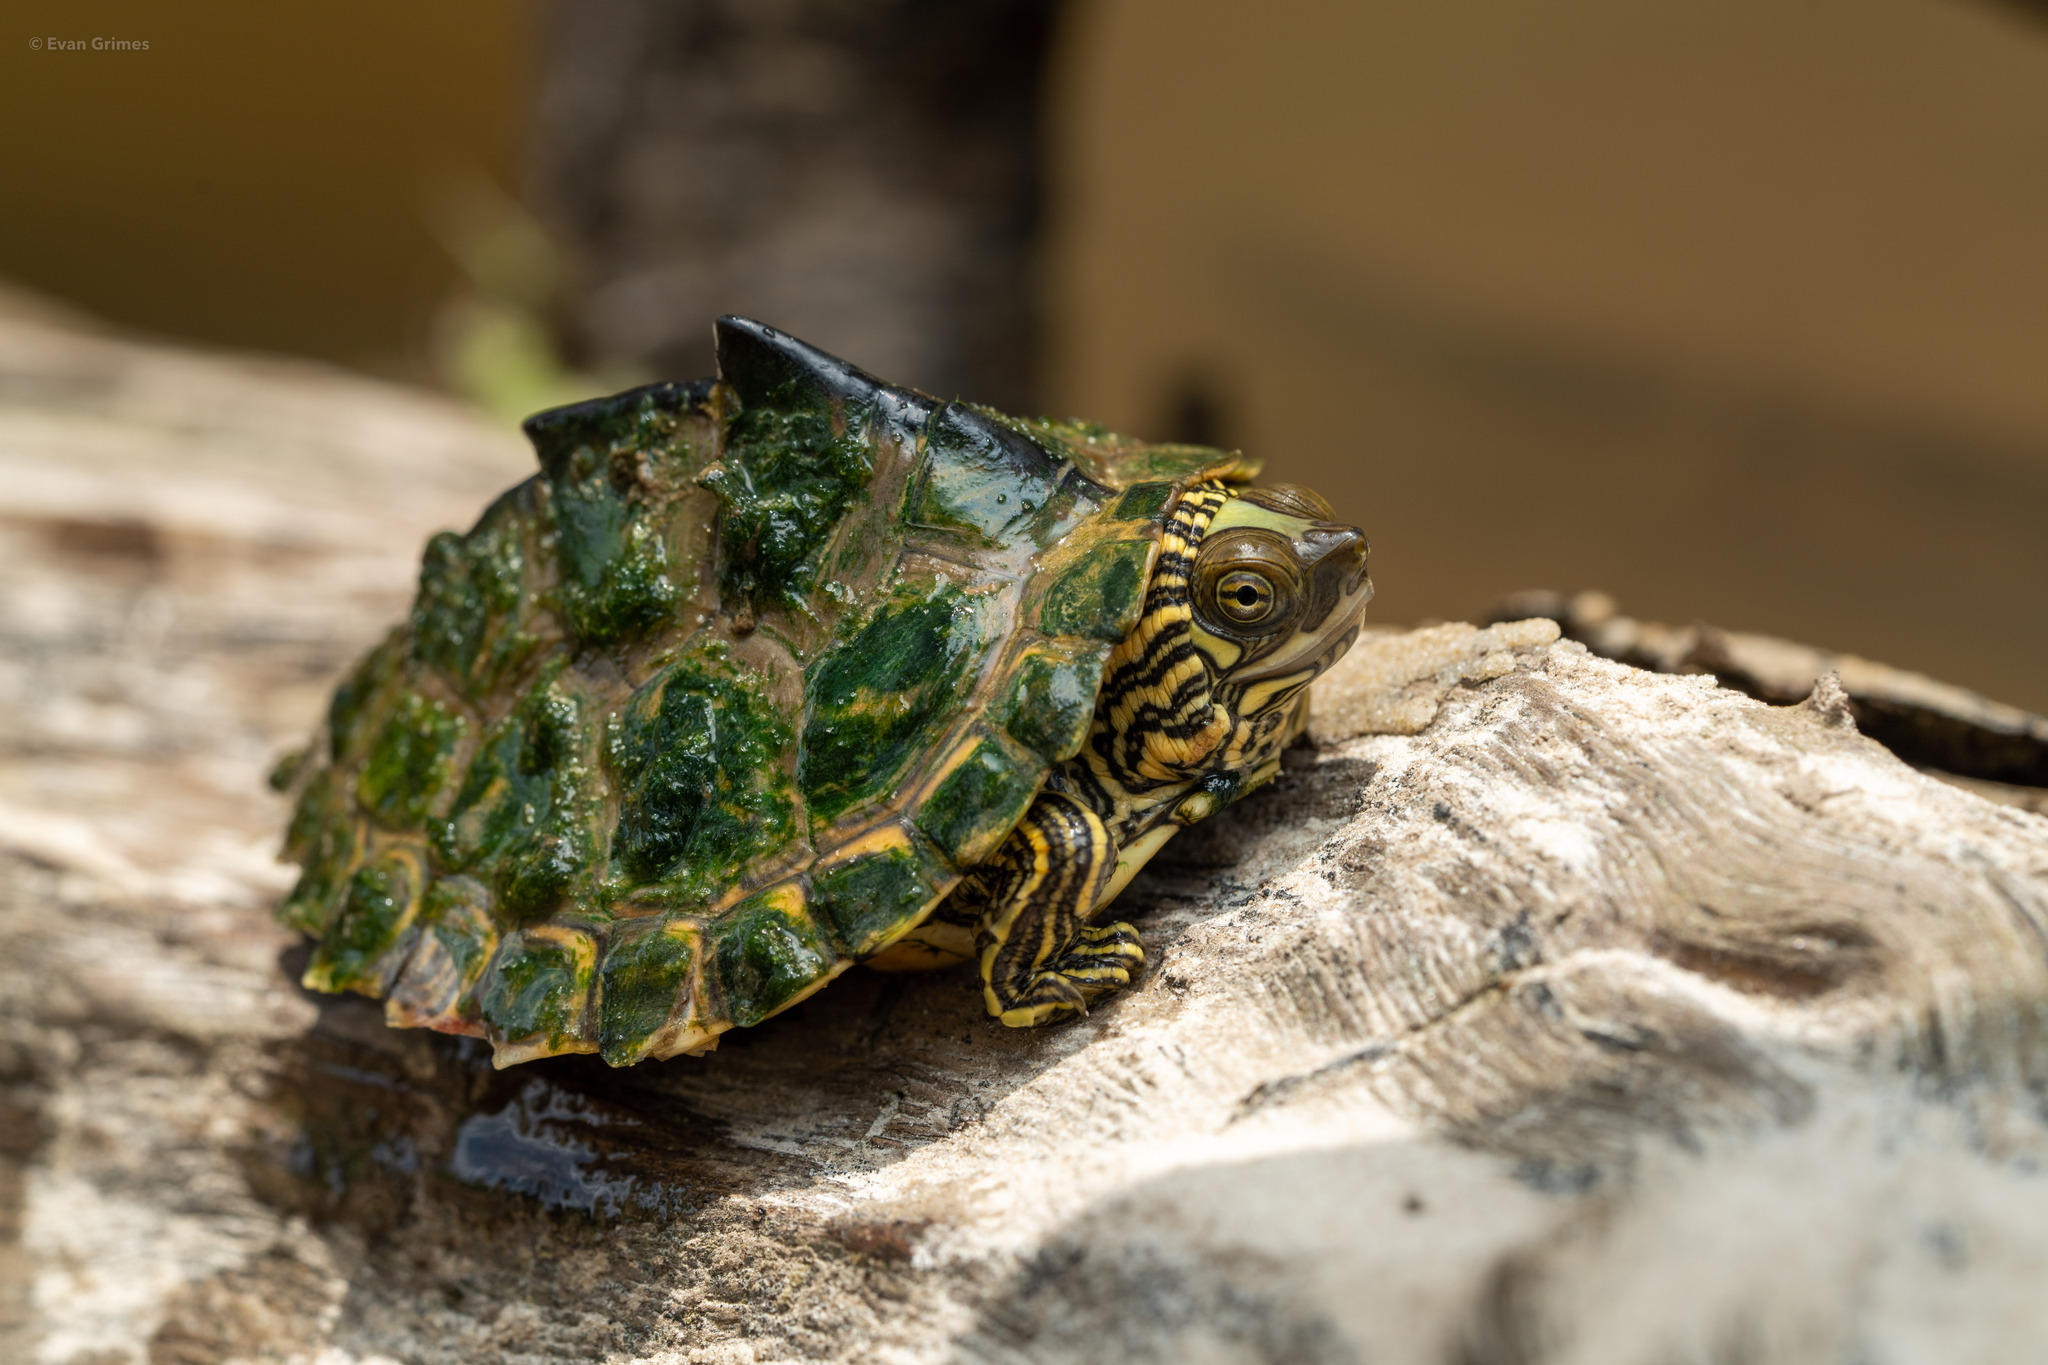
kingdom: Animalia
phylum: Chordata
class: Testudines
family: Emydidae
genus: Graptemys
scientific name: Graptemys pearlensis
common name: Pearl river map turtle
